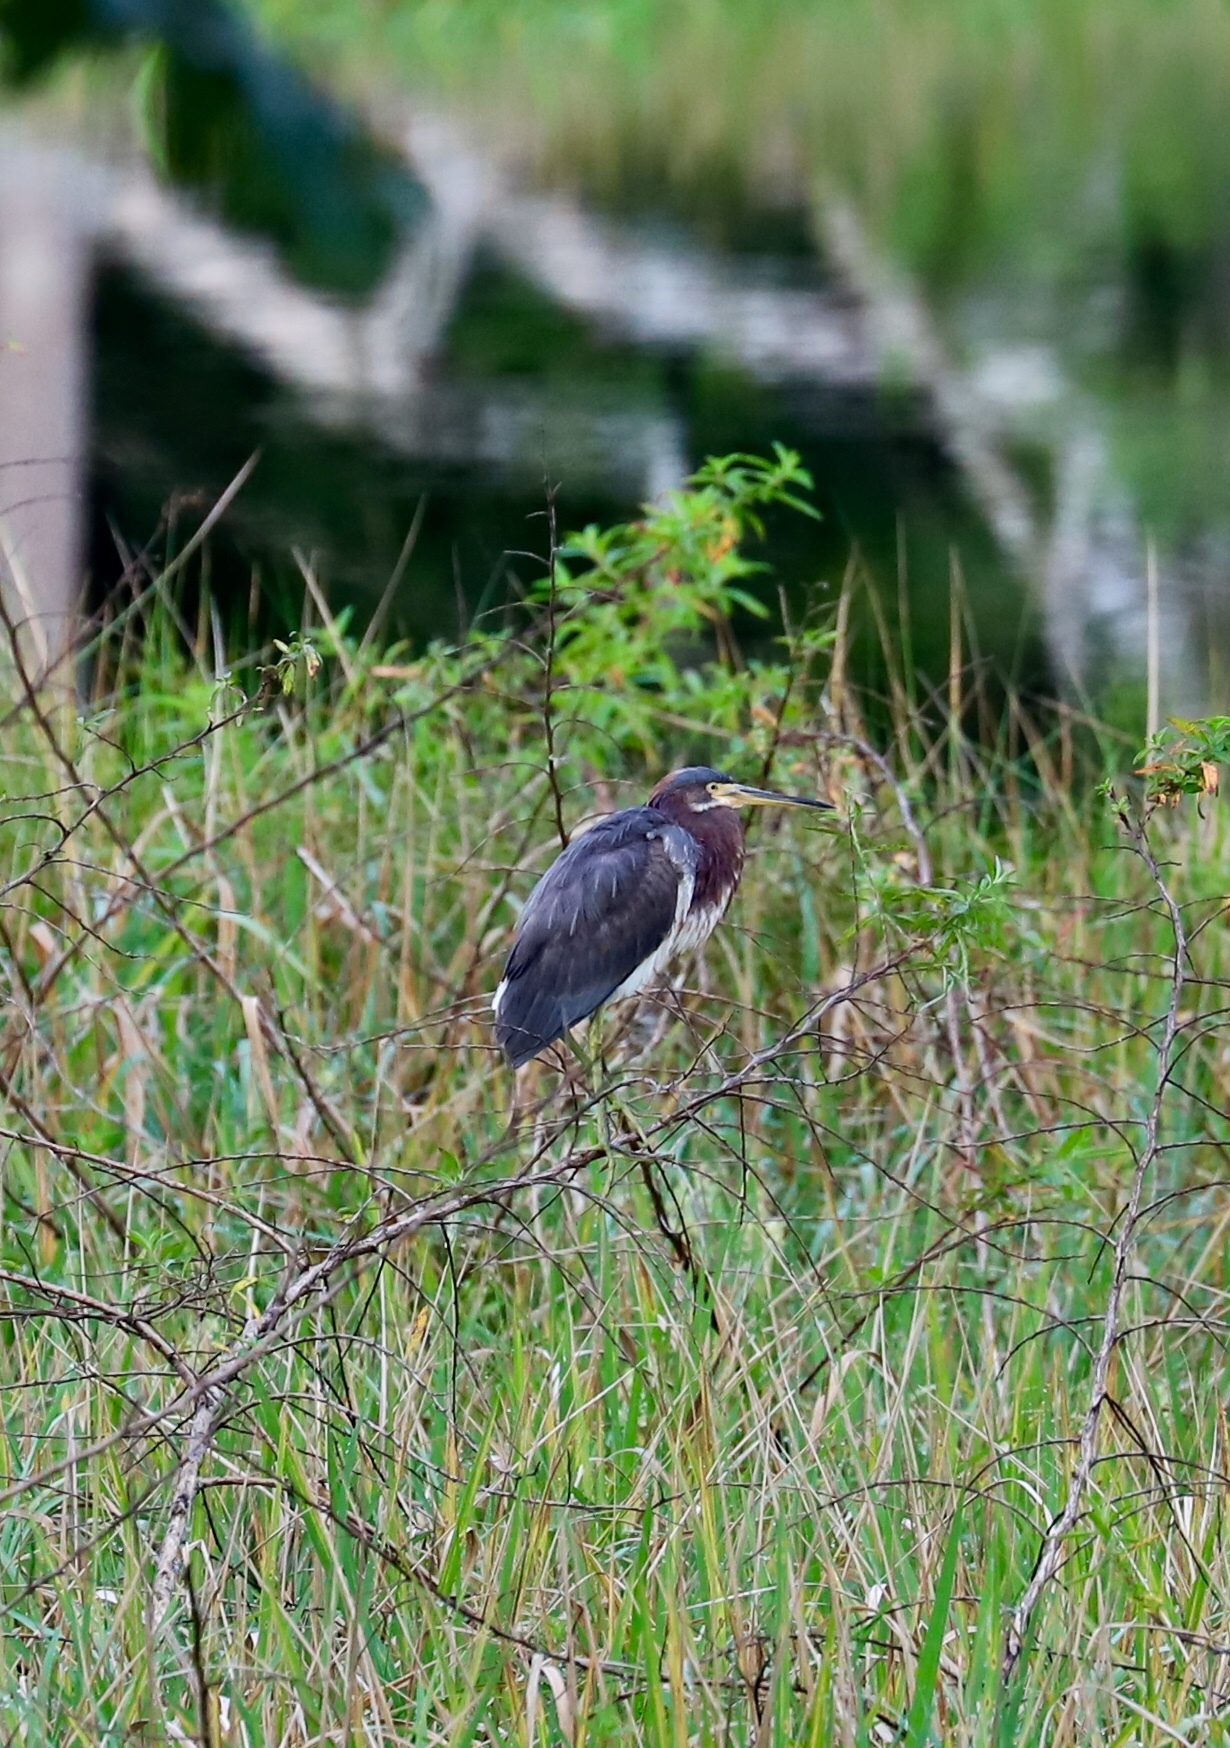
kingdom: Animalia
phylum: Chordata
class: Aves
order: Pelecaniformes
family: Ardeidae
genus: Egretta
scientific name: Egretta tricolor
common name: Tricolored heron
